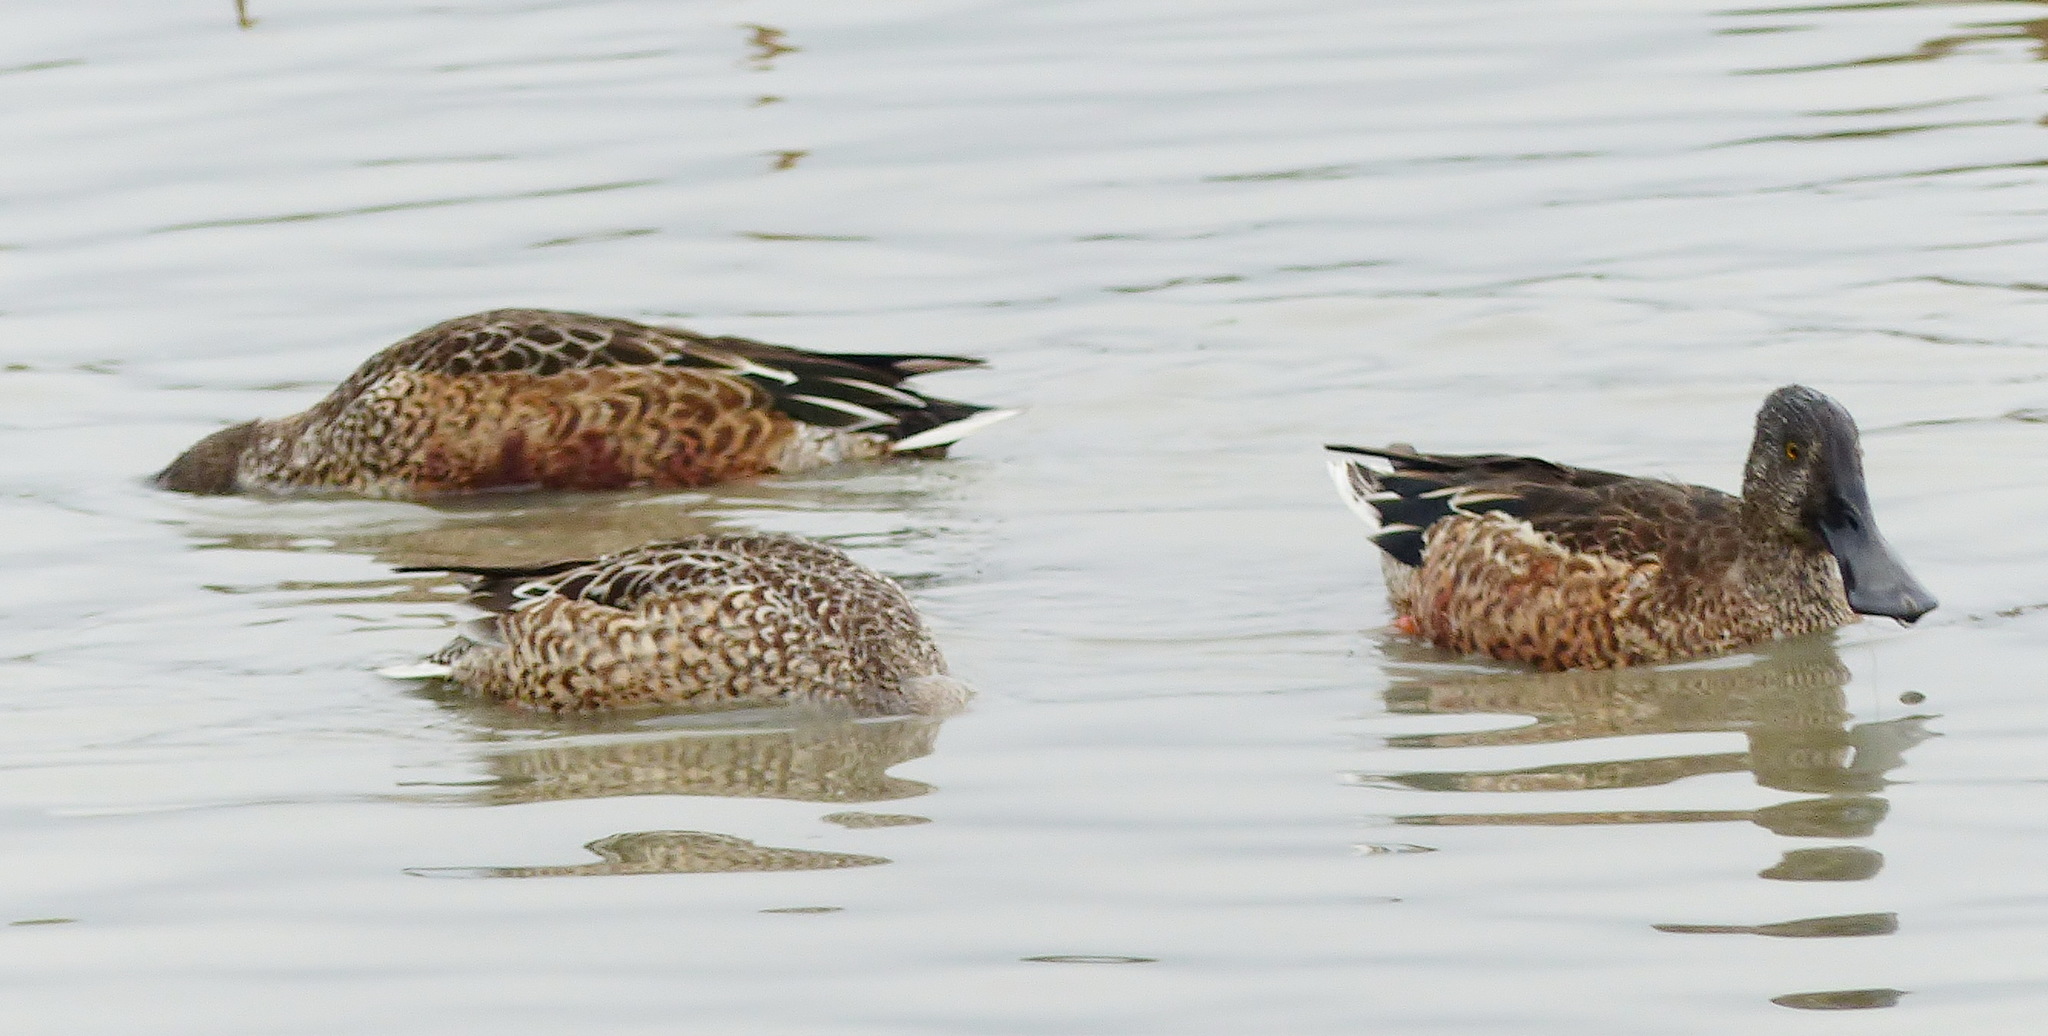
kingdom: Animalia
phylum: Chordata
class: Aves
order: Anseriformes
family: Anatidae
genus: Spatula
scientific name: Spatula clypeata
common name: Northern shoveler
